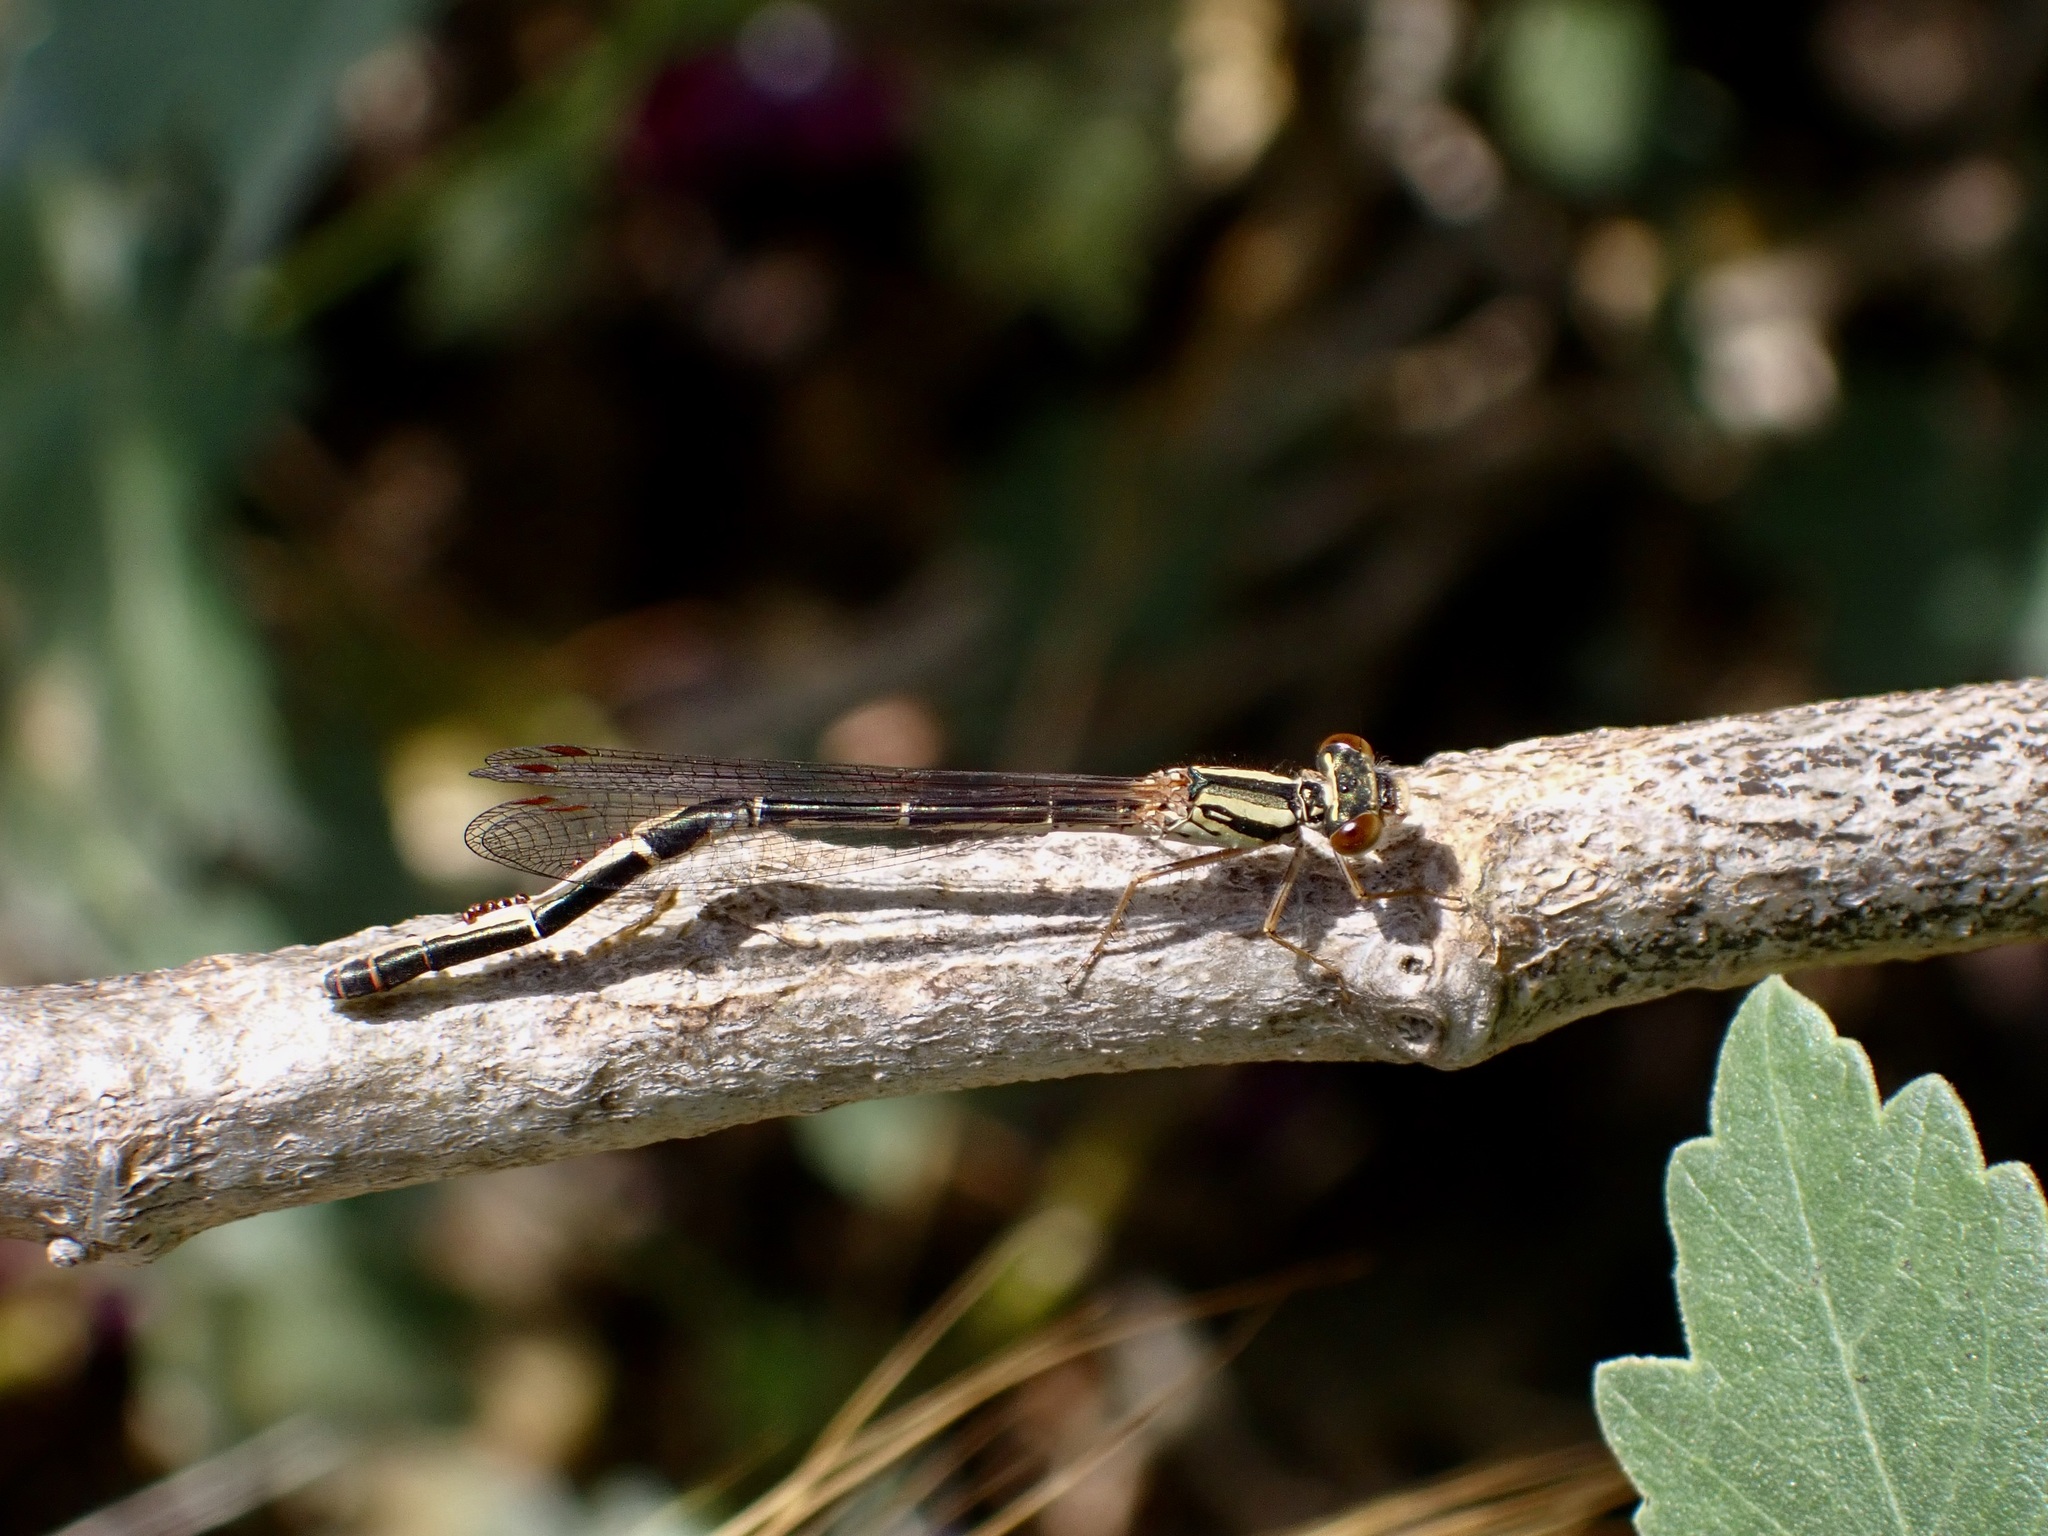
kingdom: Animalia
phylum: Arthropoda
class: Insecta
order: Odonata
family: Coenagrionidae
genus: Xanthocnemis
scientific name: Xanthocnemis zealandica
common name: Common redcoat damselfly
